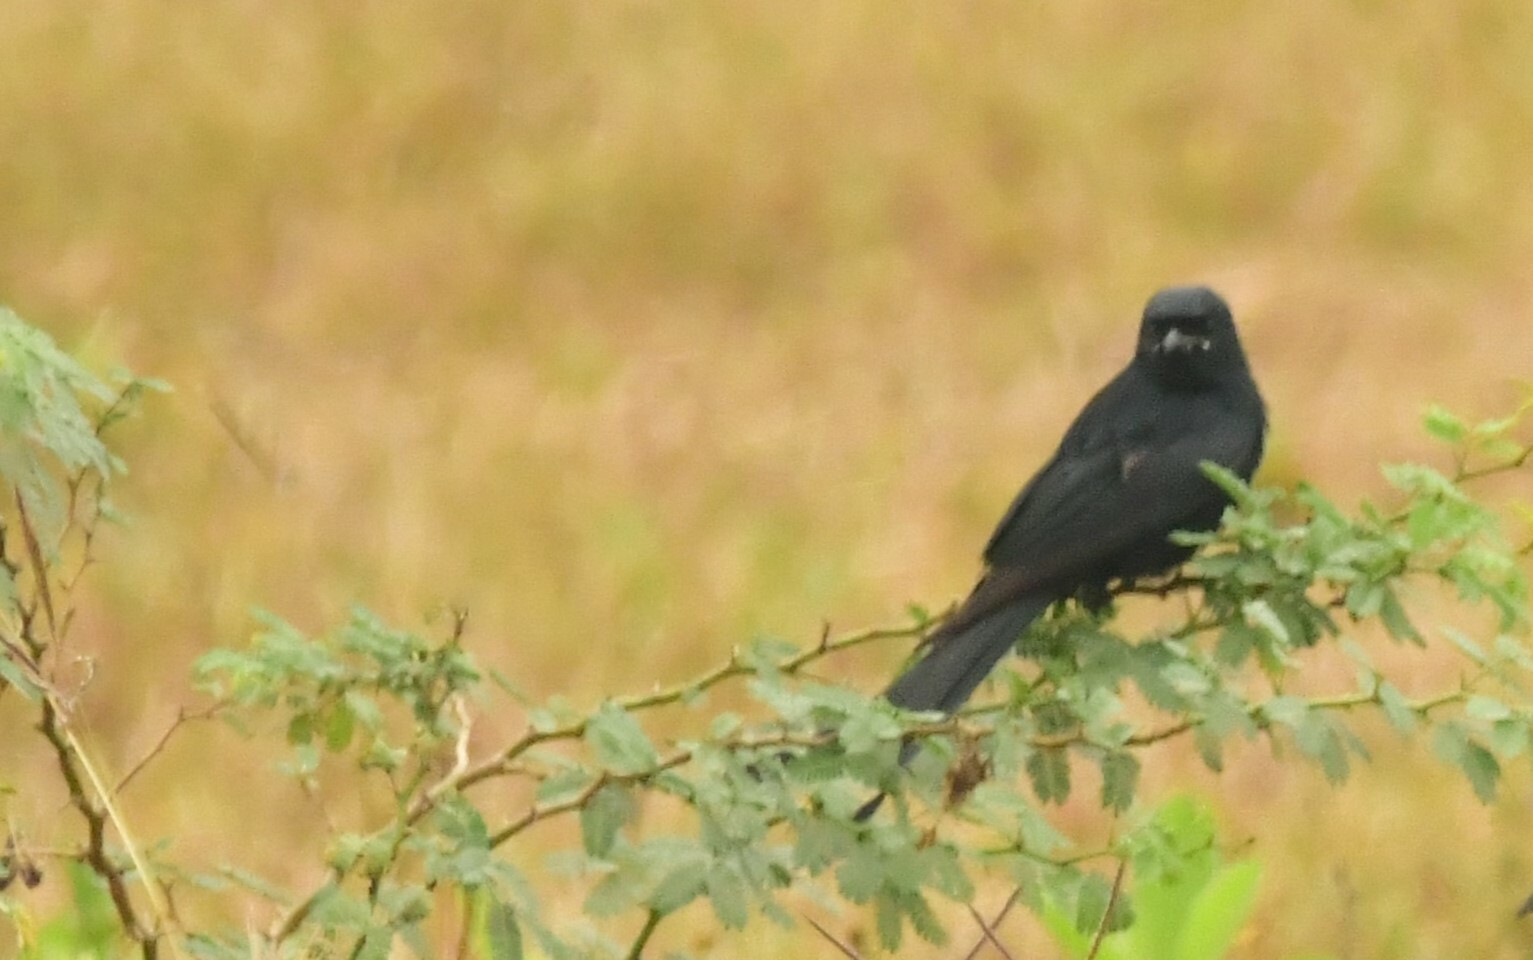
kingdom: Animalia
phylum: Chordata
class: Aves
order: Passeriformes
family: Dicruridae
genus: Dicrurus
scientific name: Dicrurus macrocercus
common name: Black drongo
